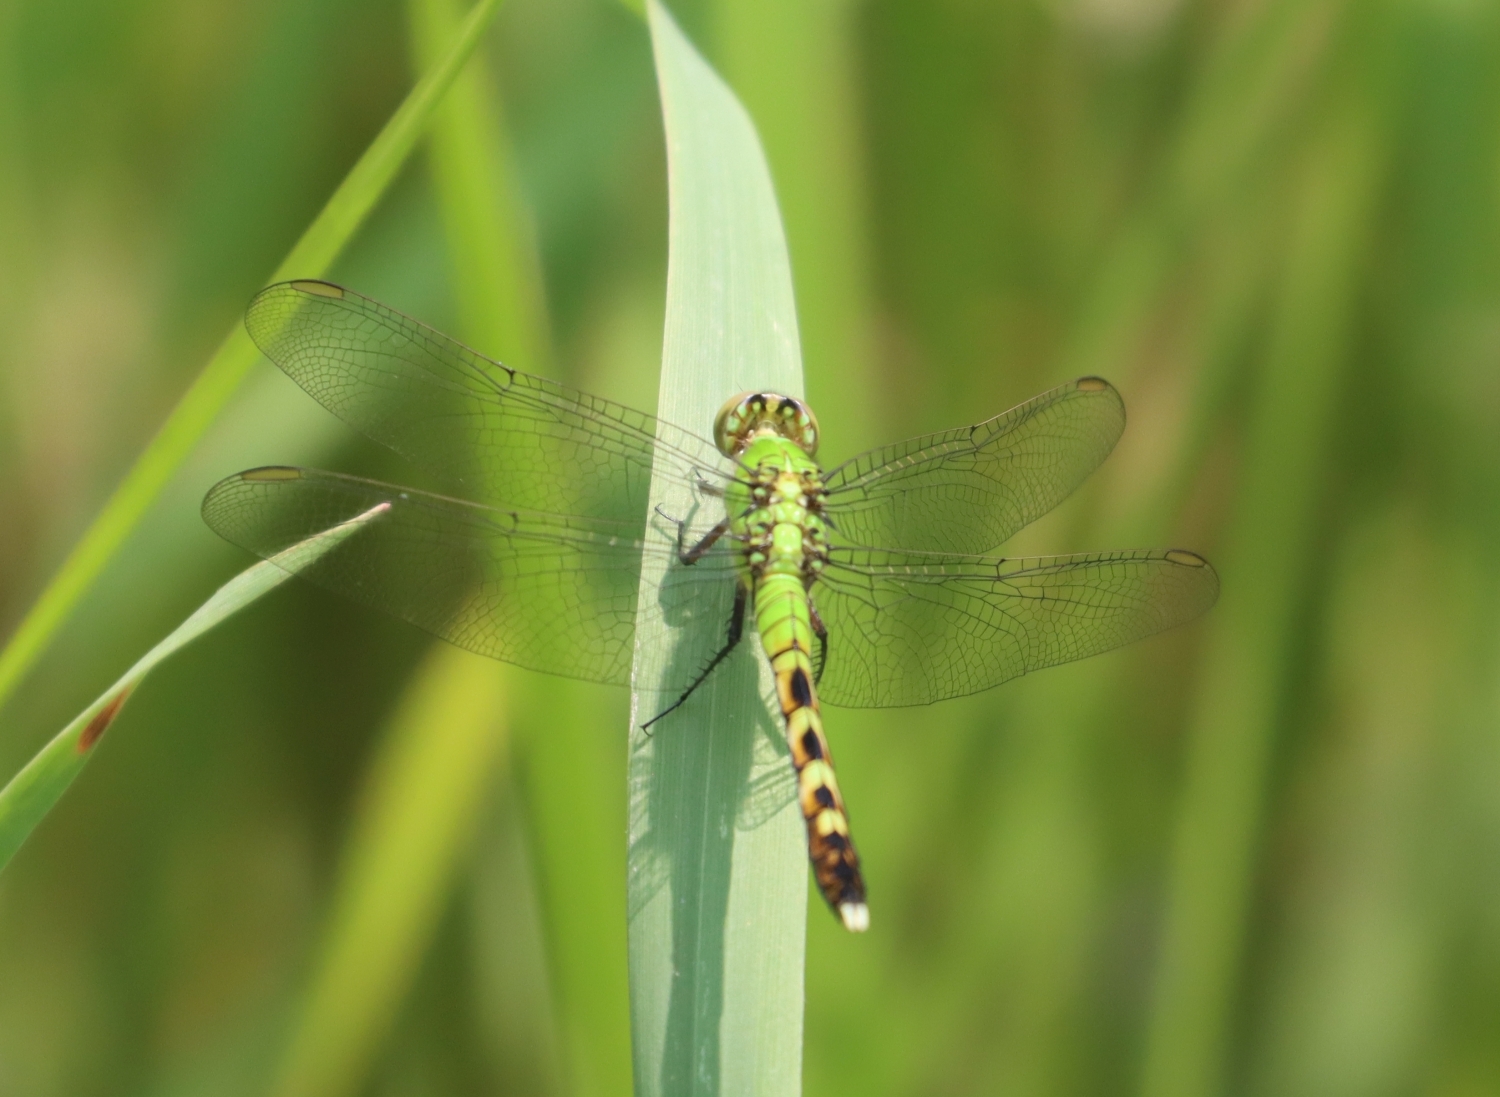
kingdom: Animalia
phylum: Arthropoda
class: Insecta
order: Odonata
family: Libellulidae
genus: Erythemis
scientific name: Erythemis simplicicollis
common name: Eastern pondhawk
